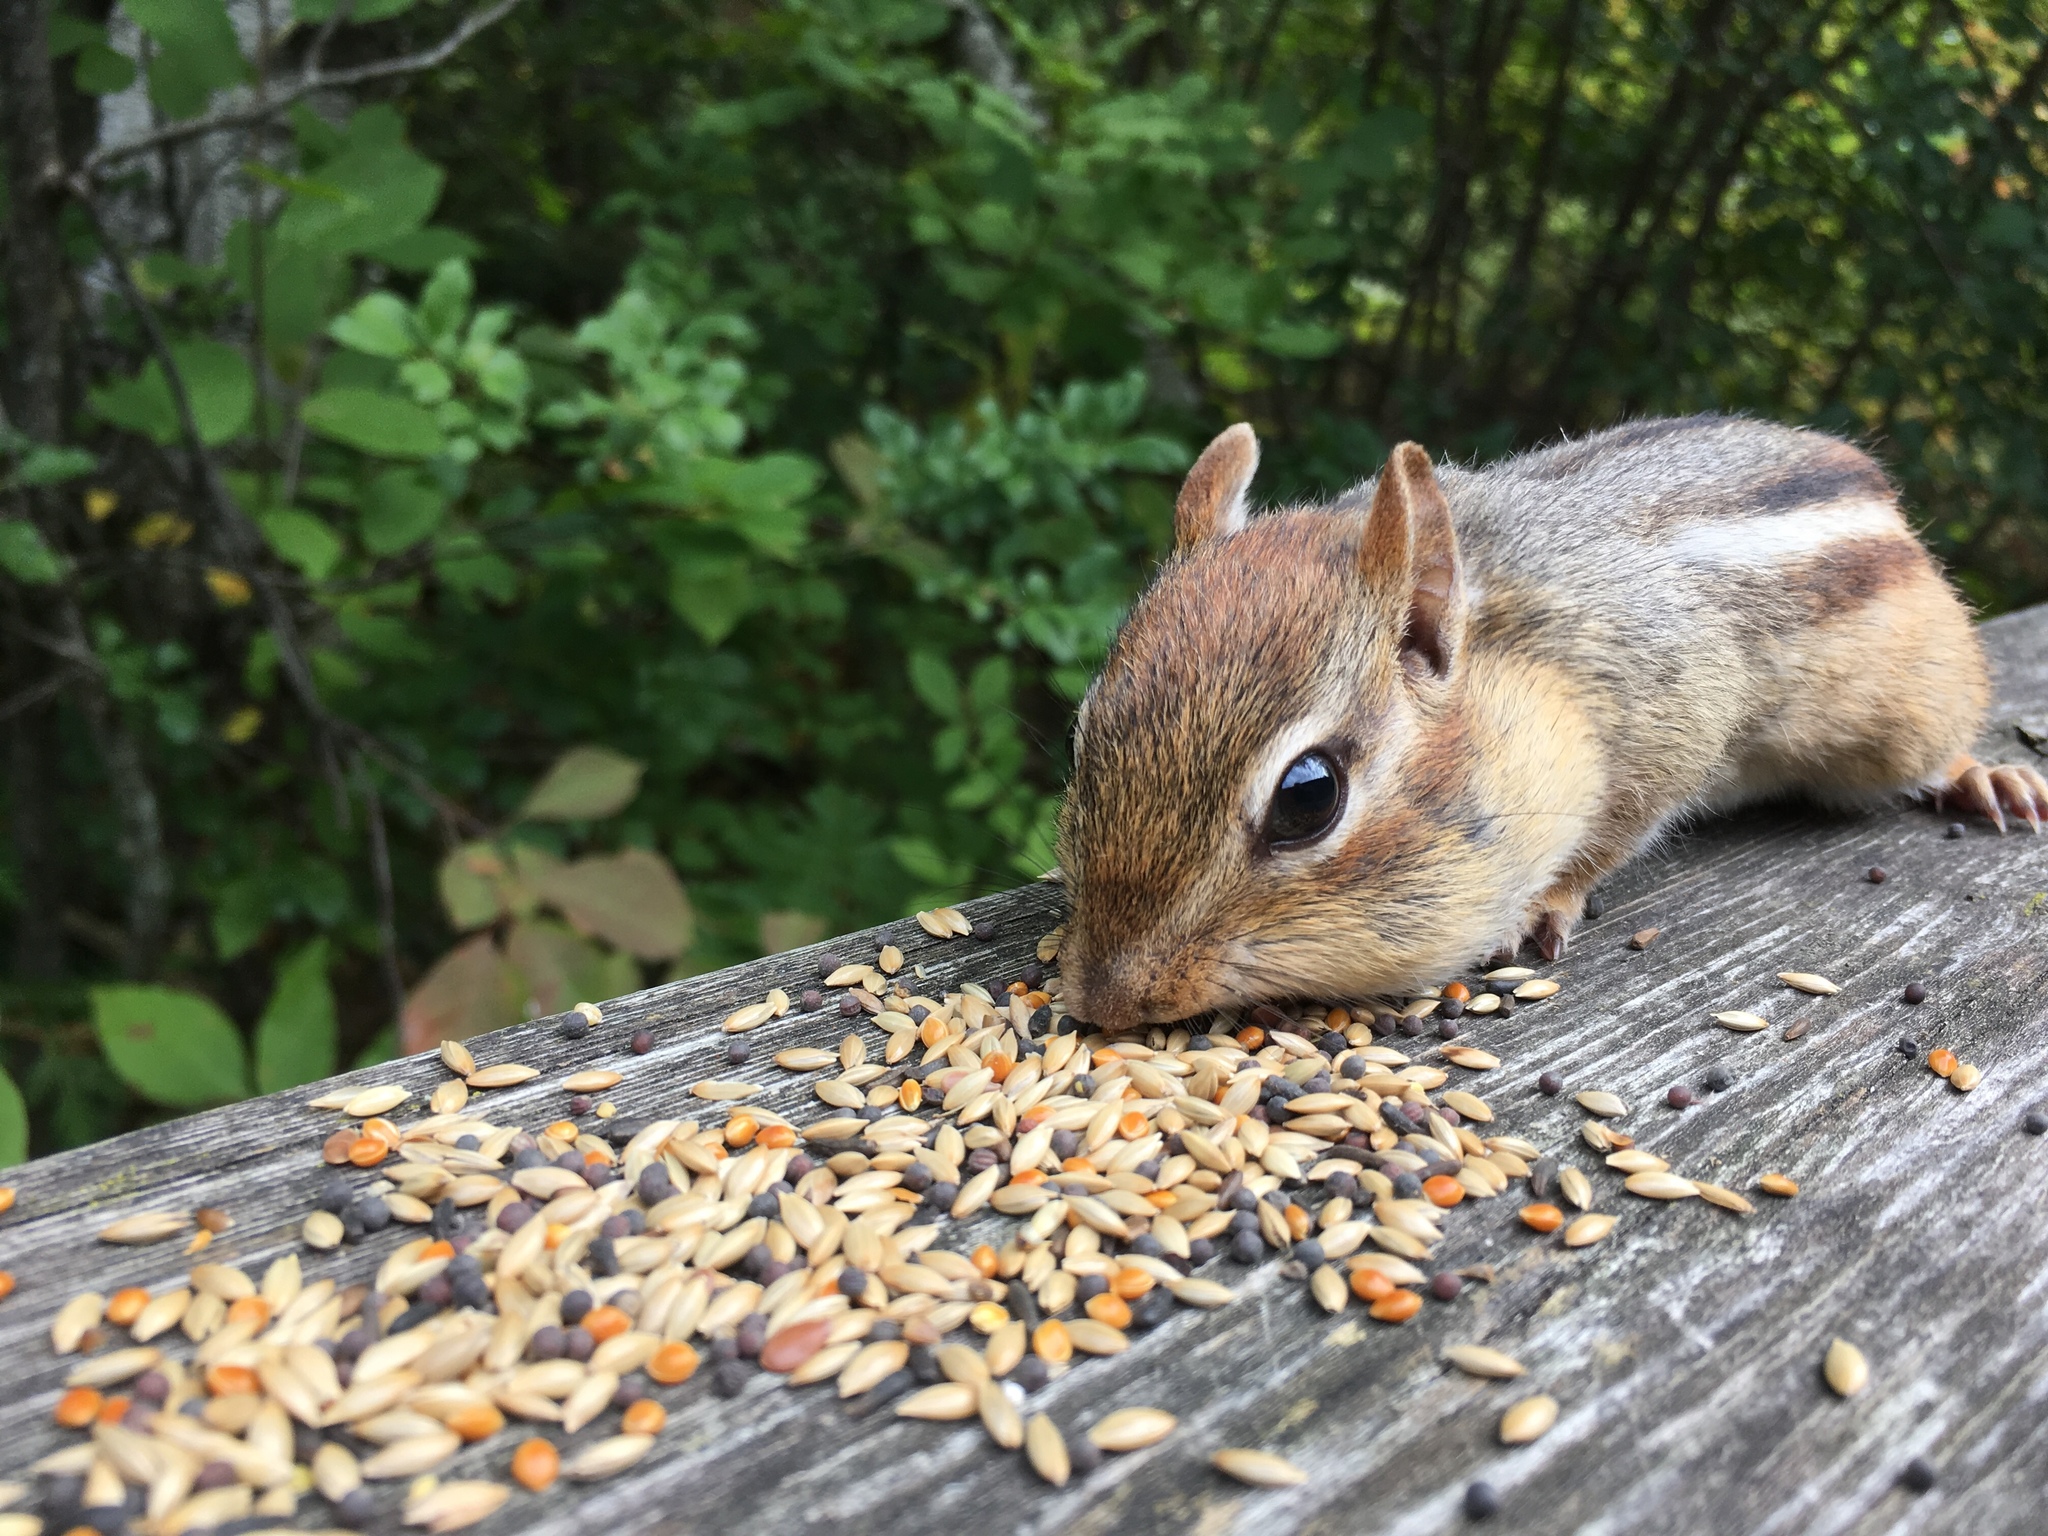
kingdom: Animalia
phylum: Chordata
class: Mammalia
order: Rodentia
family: Sciuridae
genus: Tamias
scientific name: Tamias striatus
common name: Eastern chipmunk
